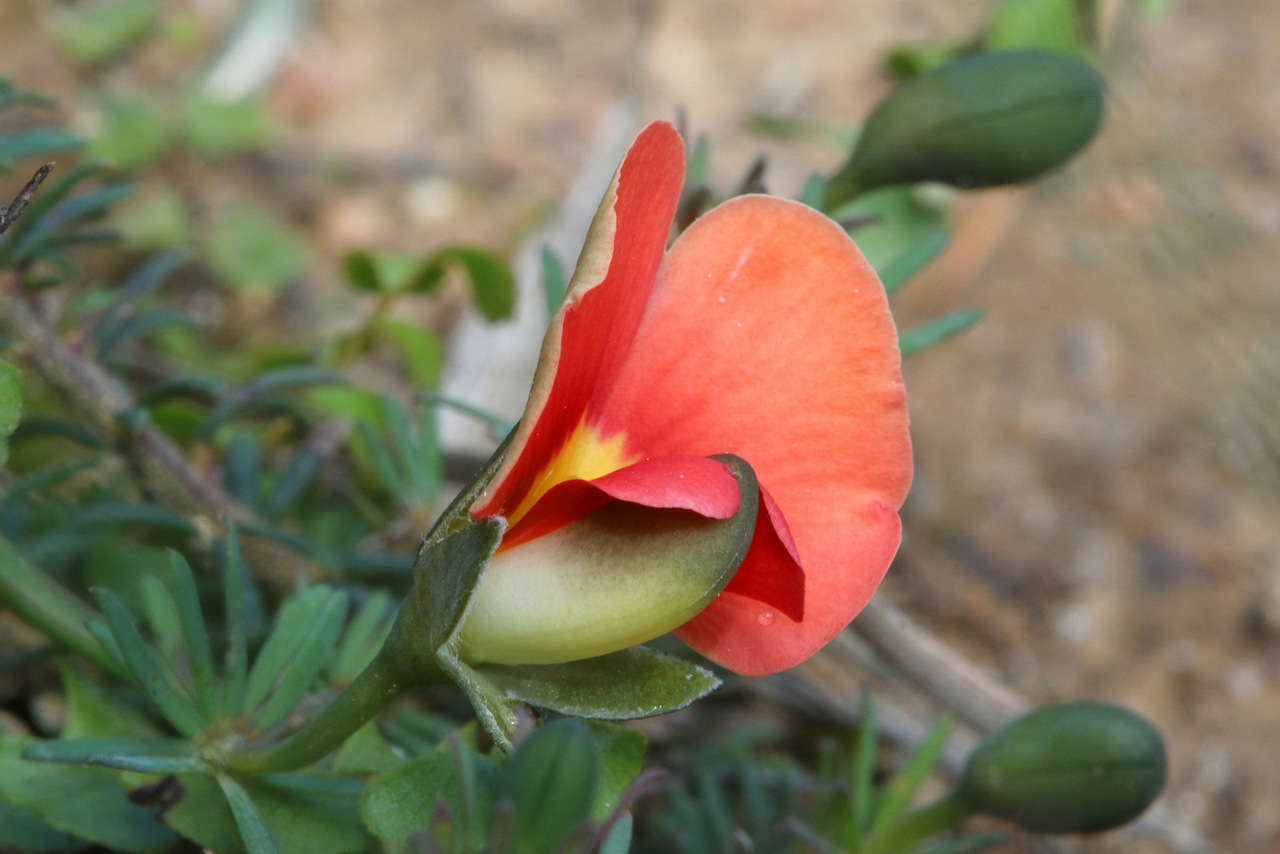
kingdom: Plantae
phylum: Tracheophyta
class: Magnoliopsida
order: Fabales
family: Fabaceae
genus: Gompholobium
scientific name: Gompholobium ecostatum
